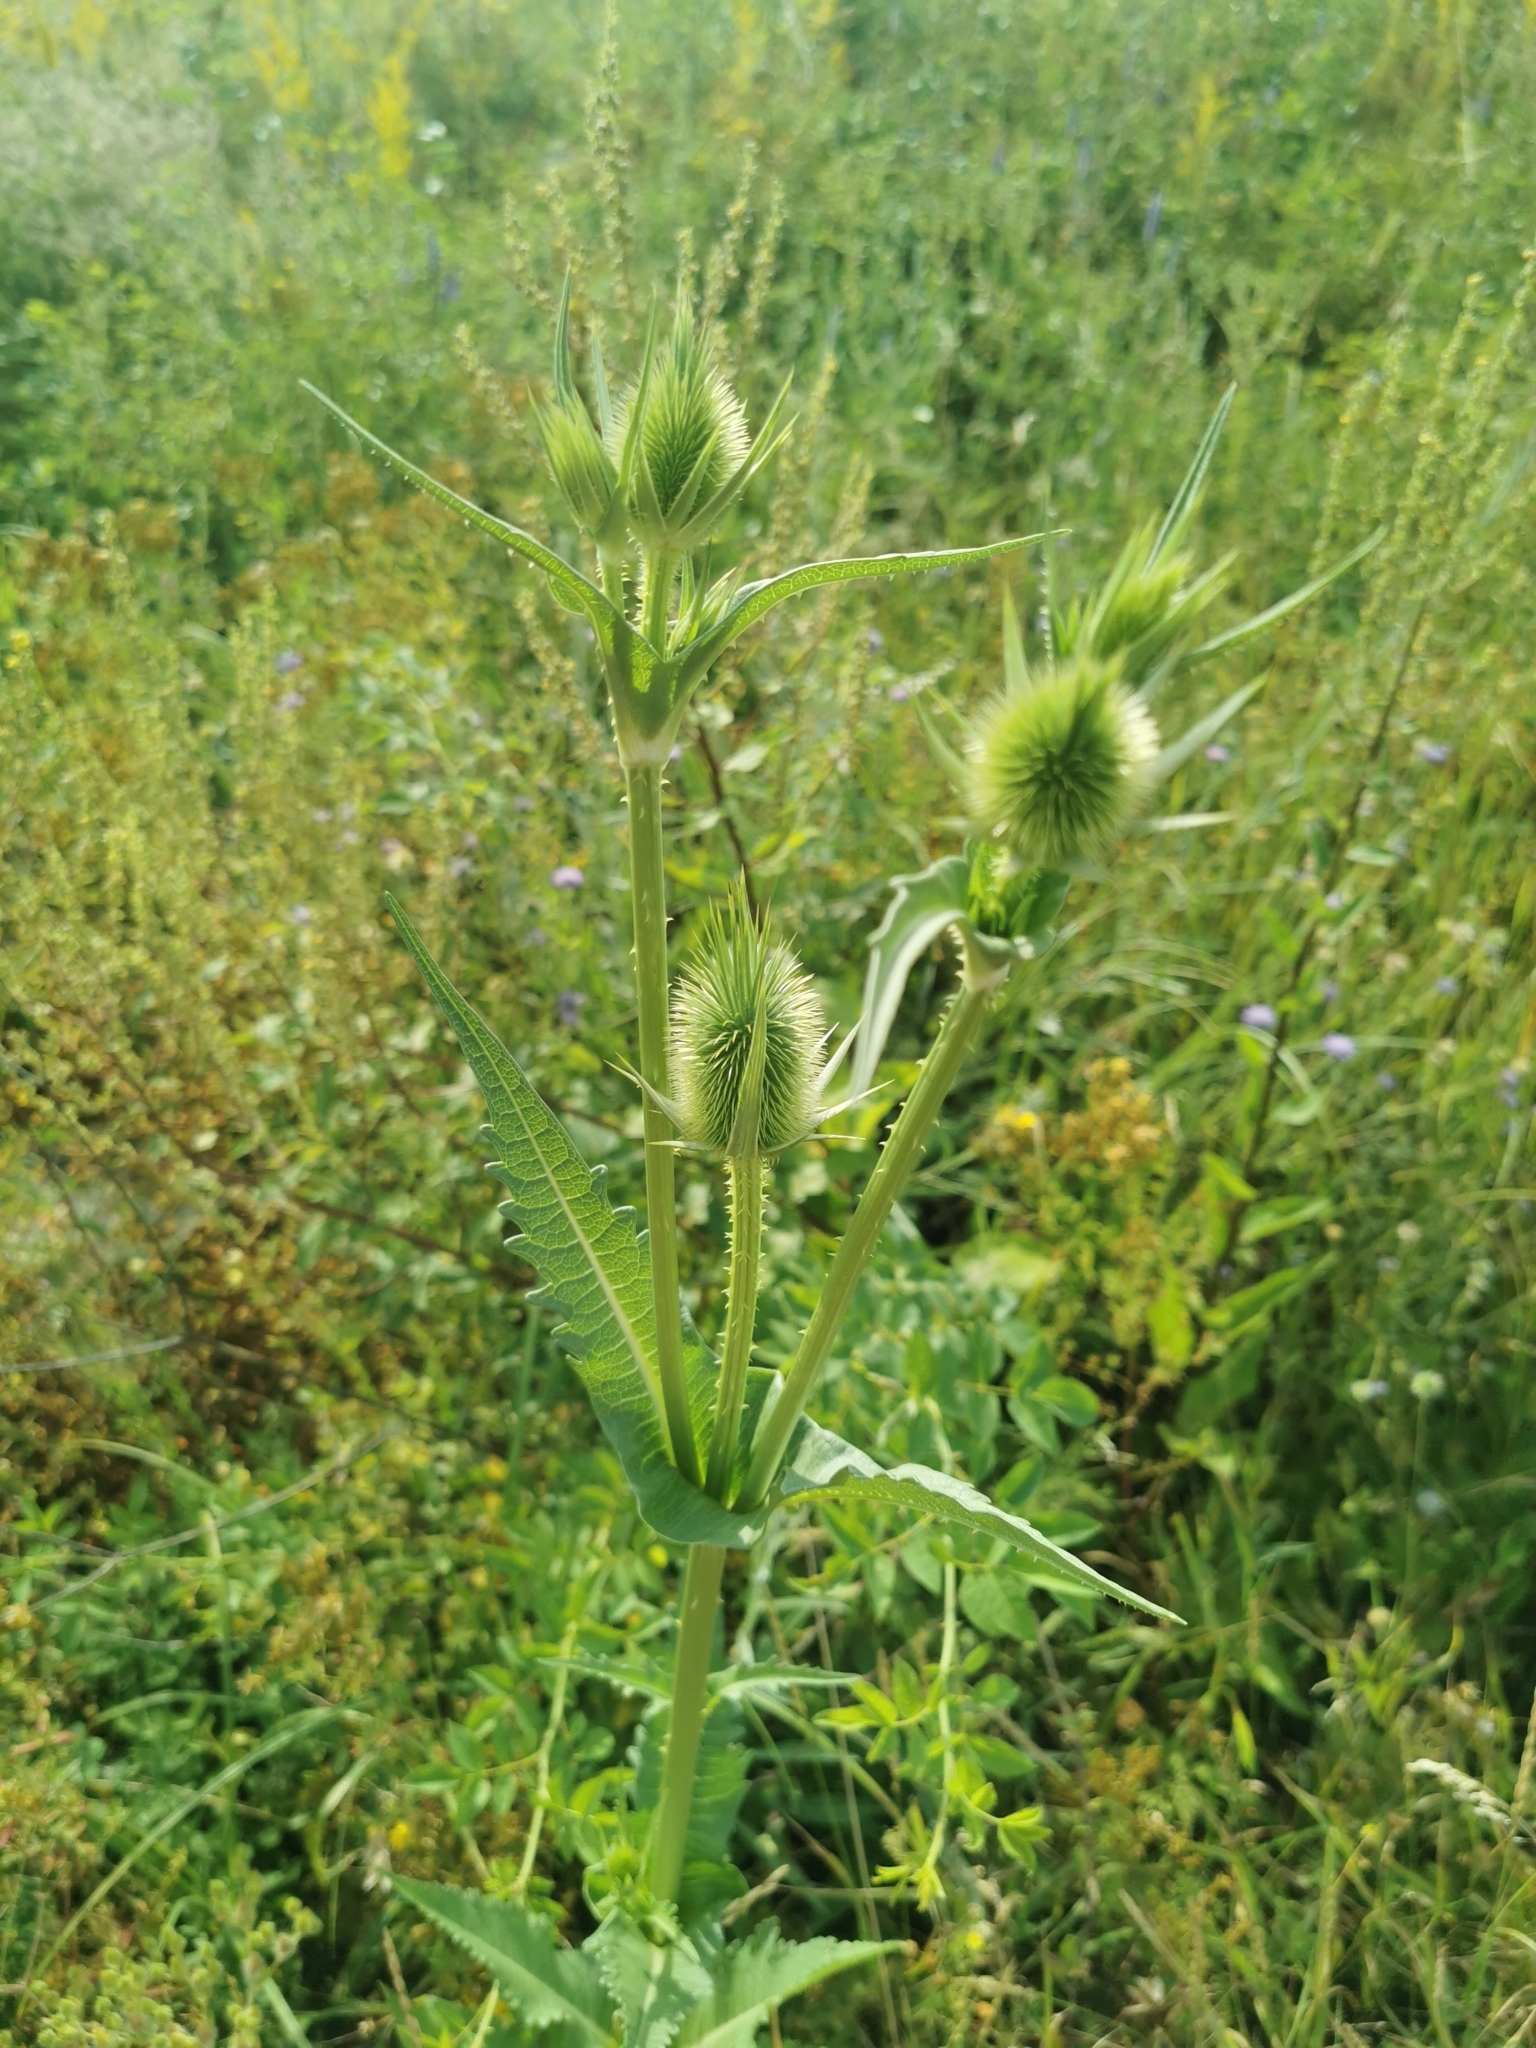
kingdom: Plantae
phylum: Tracheophyta
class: Magnoliopsida
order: Dipsacales
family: Caprifoliaceae
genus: Dipsacus
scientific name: Dipsacus laciniatus
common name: Cut-leaved teasel
